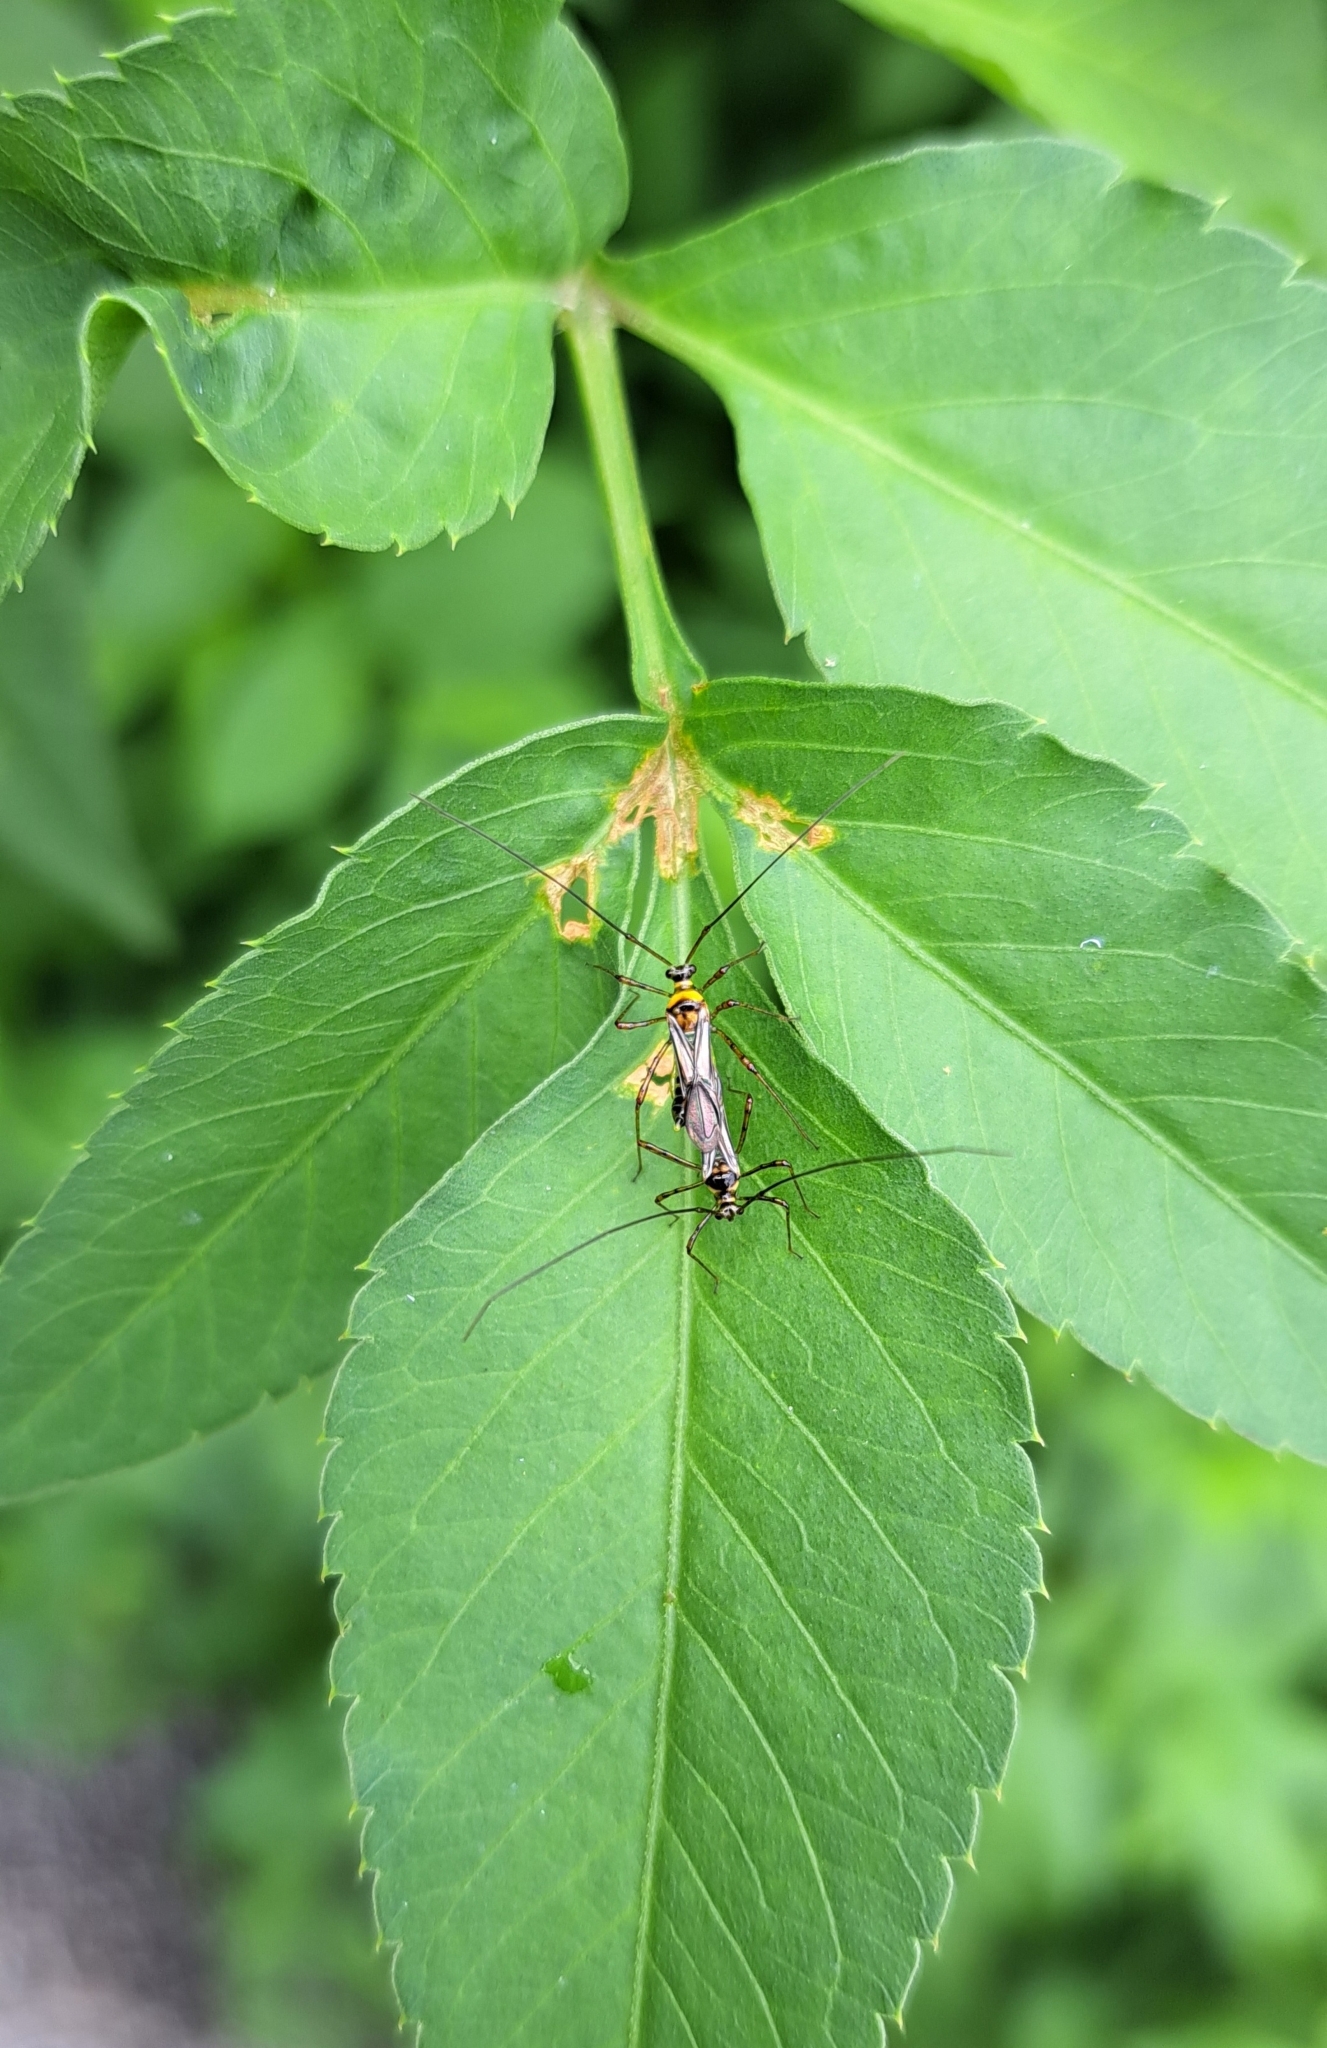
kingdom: Animalia
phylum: Arthropoda
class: Insecta
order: Hemiptera
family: Miridae
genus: Helopeltis
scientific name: Helopeltis theivora
